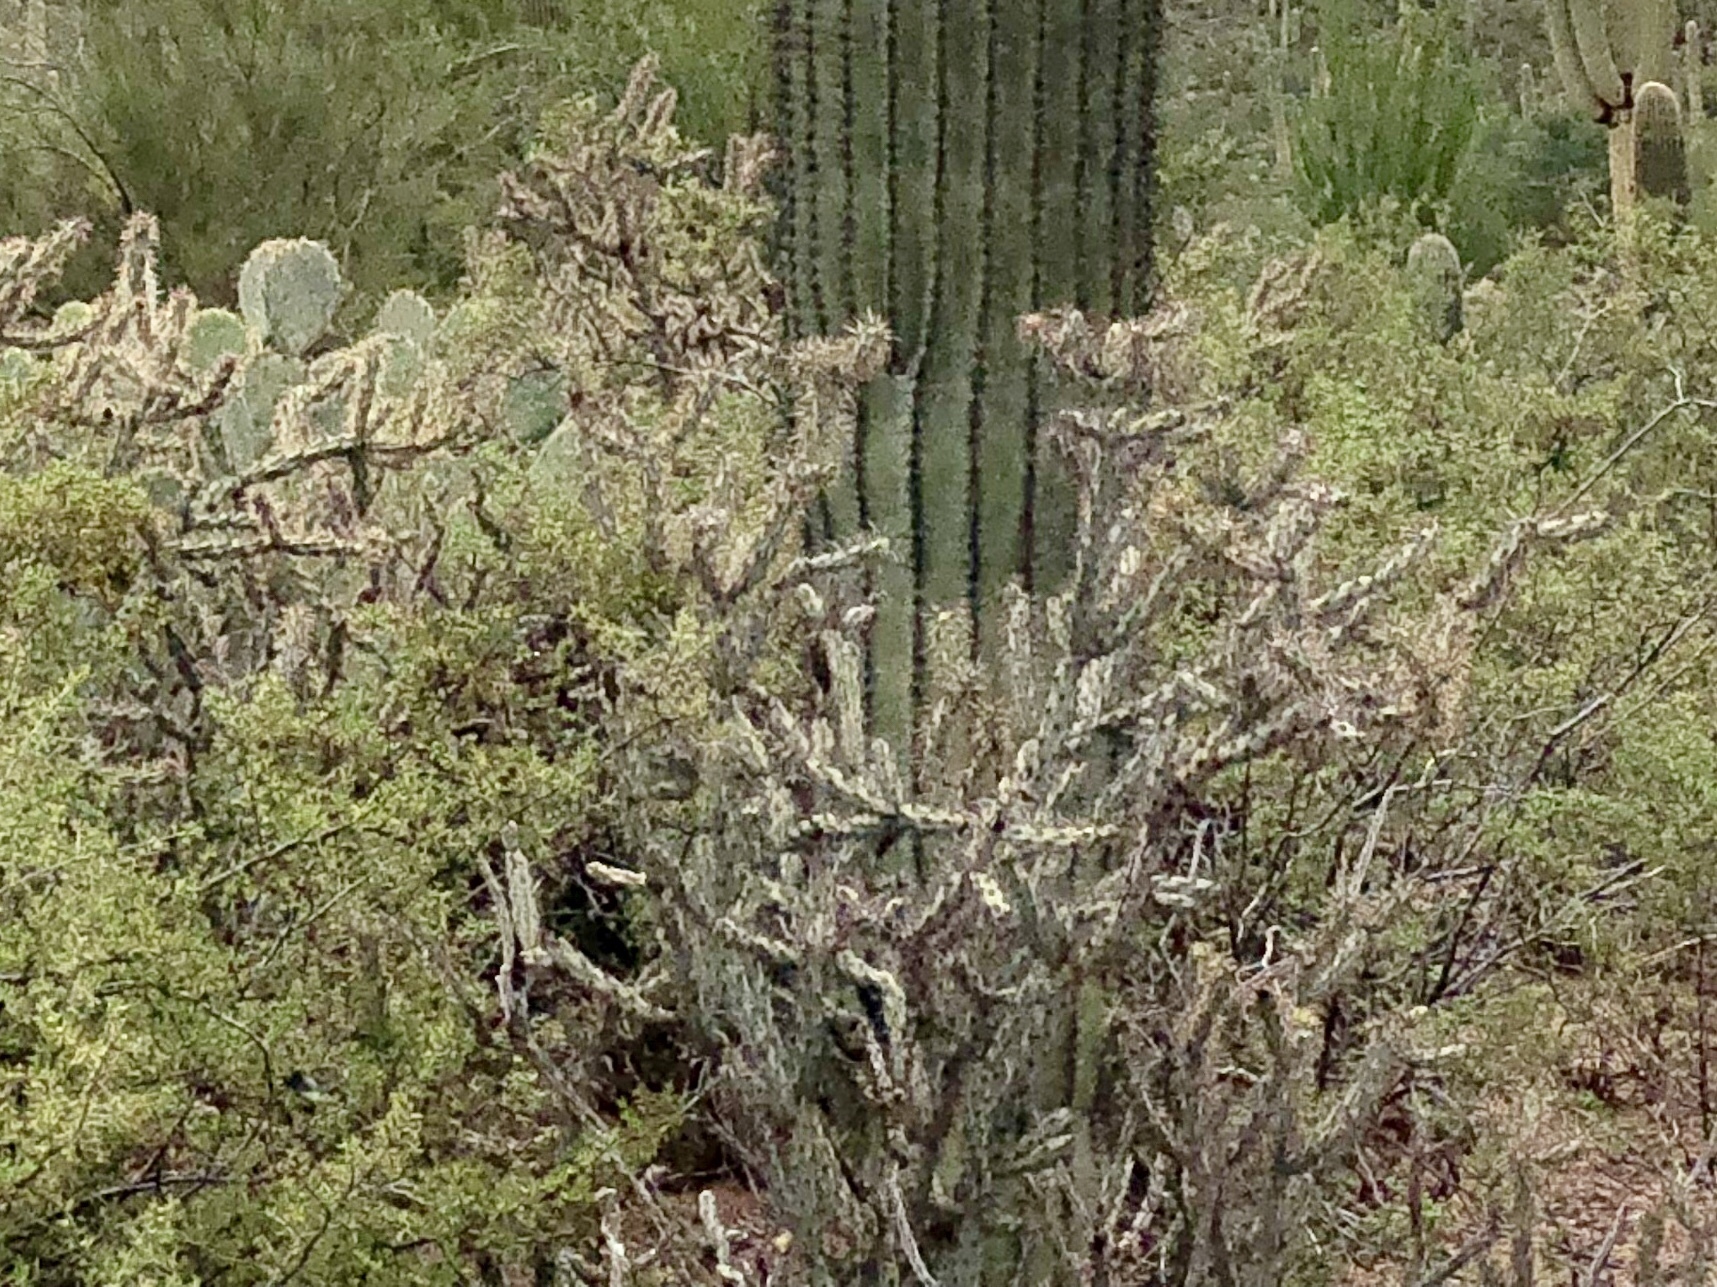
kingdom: Plantae
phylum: Tracheophyta
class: Magnoliopsida
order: Caryophyllales
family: Cactaceae
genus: Cylindropuntia
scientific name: Cylindropuntia acanthocarpa
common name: Buckhorn cholla
